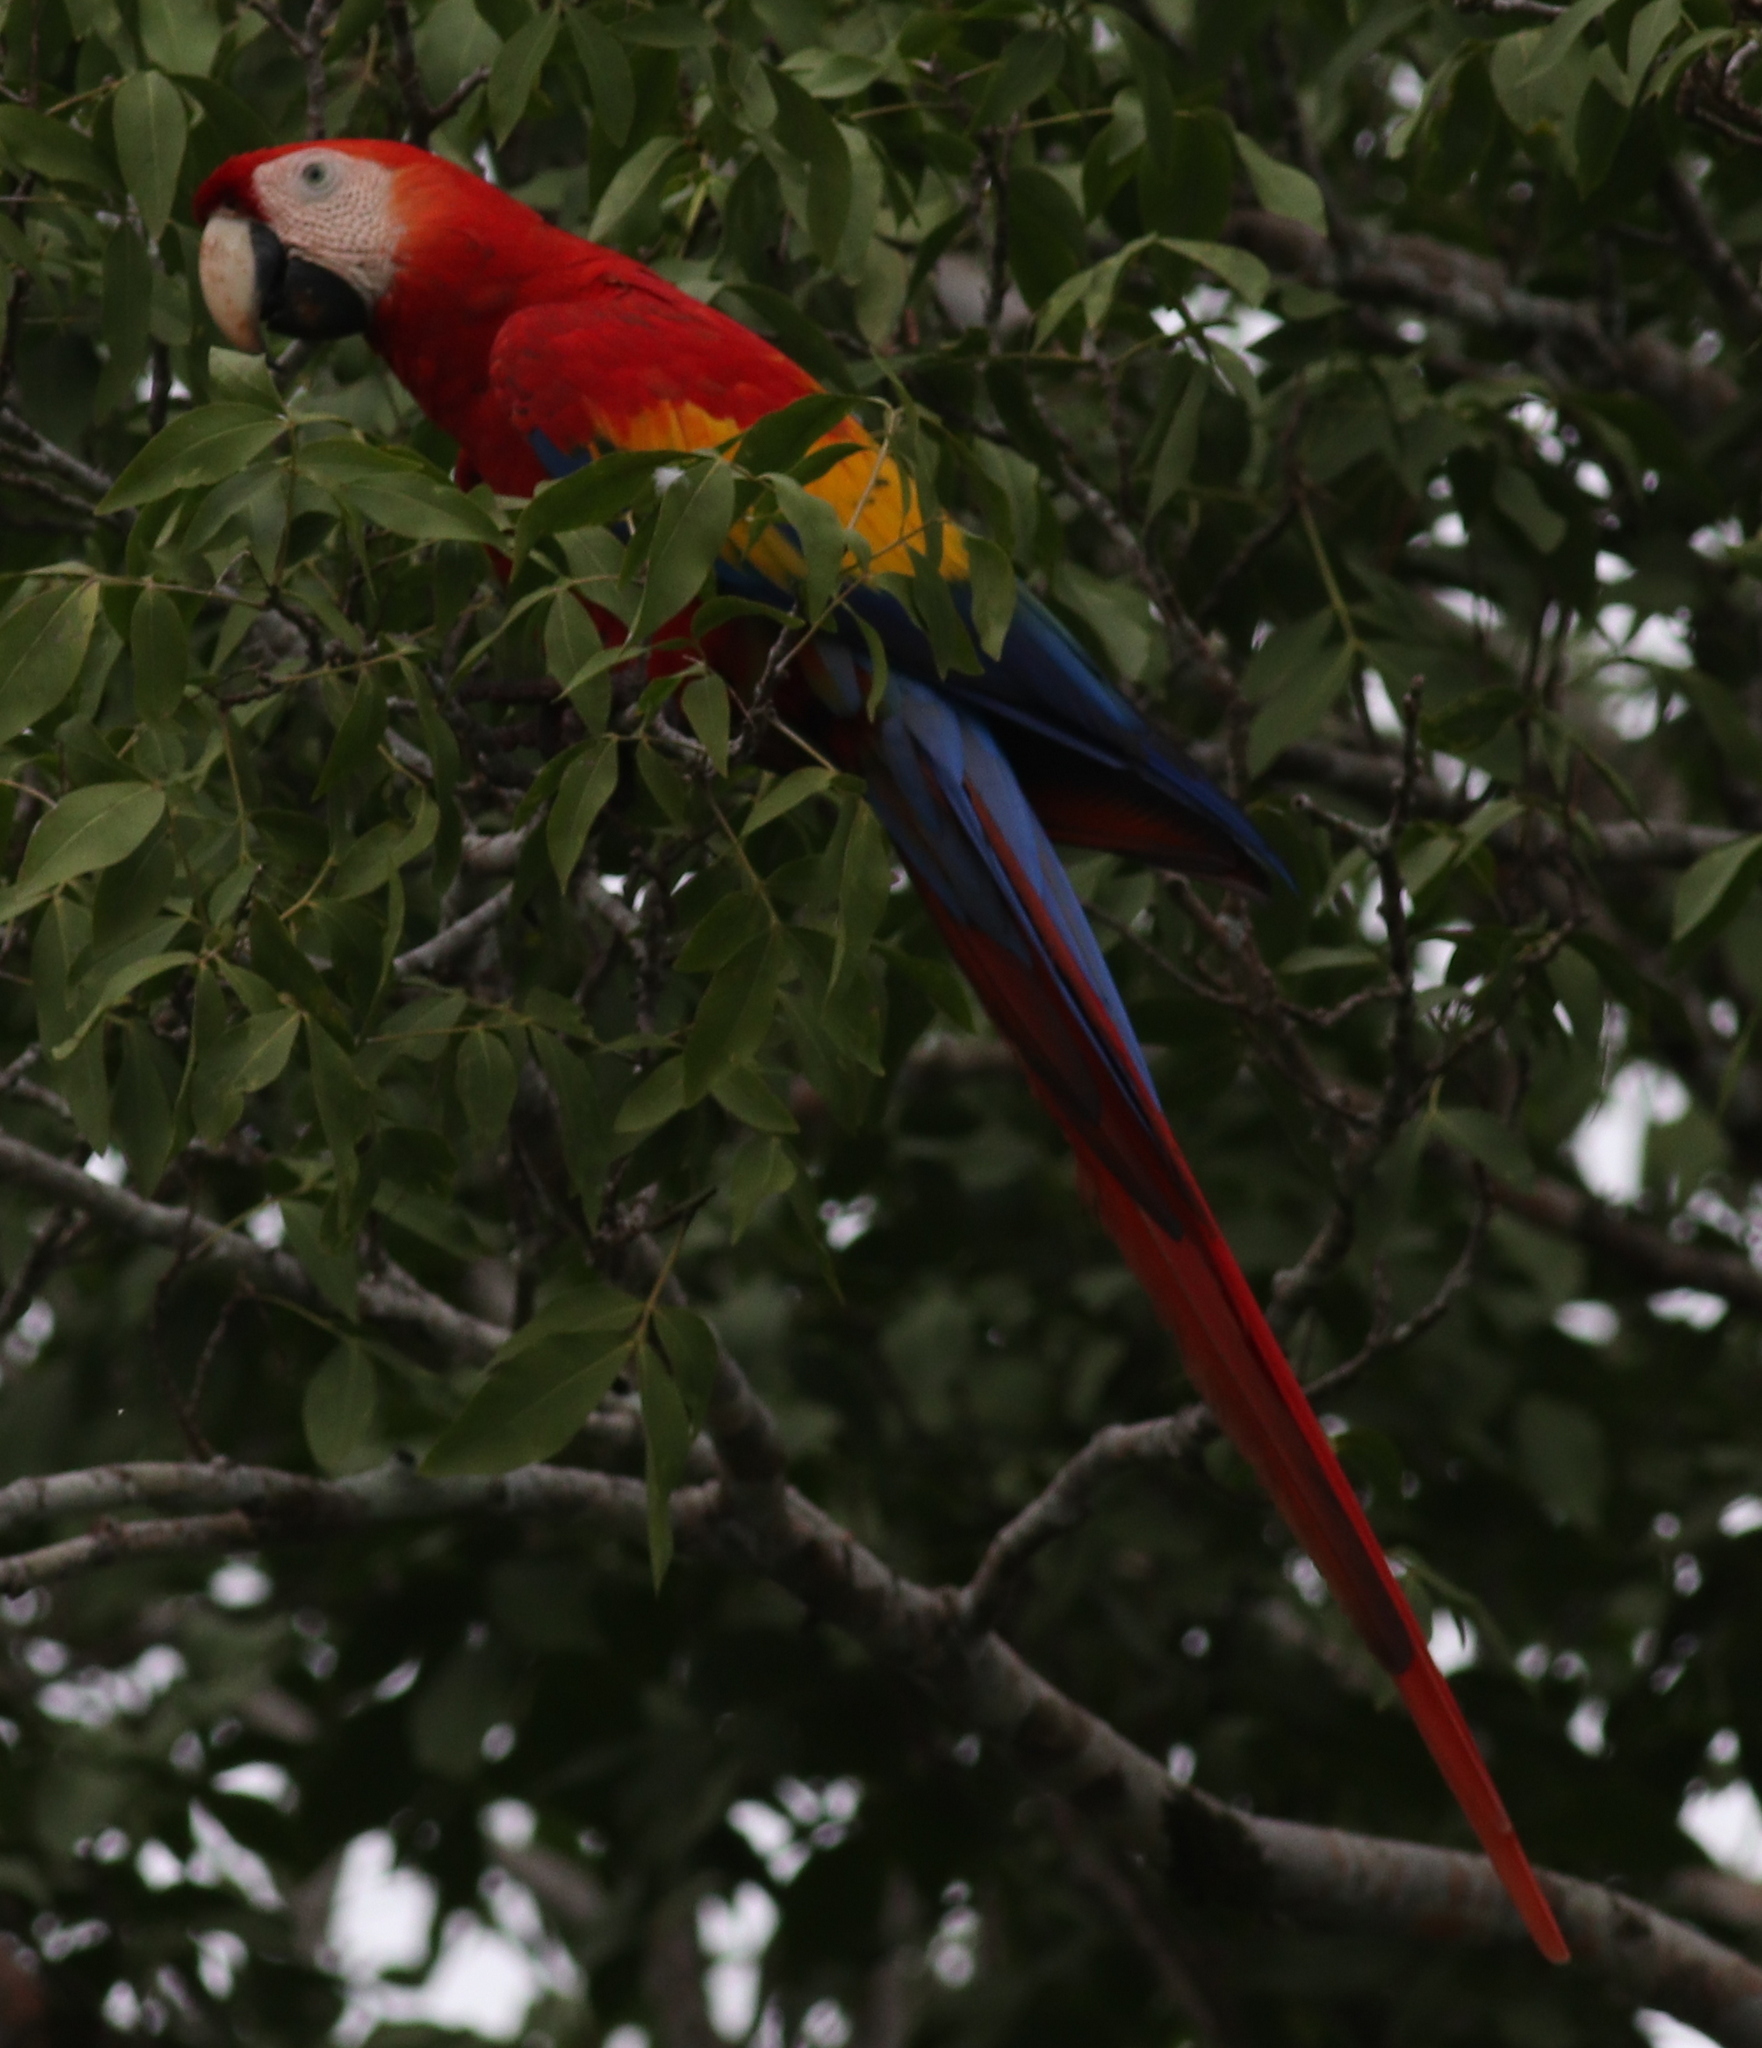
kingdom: Animalia
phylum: Chordata
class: Aves
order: Psittaciformes
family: Psittacidae
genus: Ara
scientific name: Ara macao
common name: Scarlet macaw
